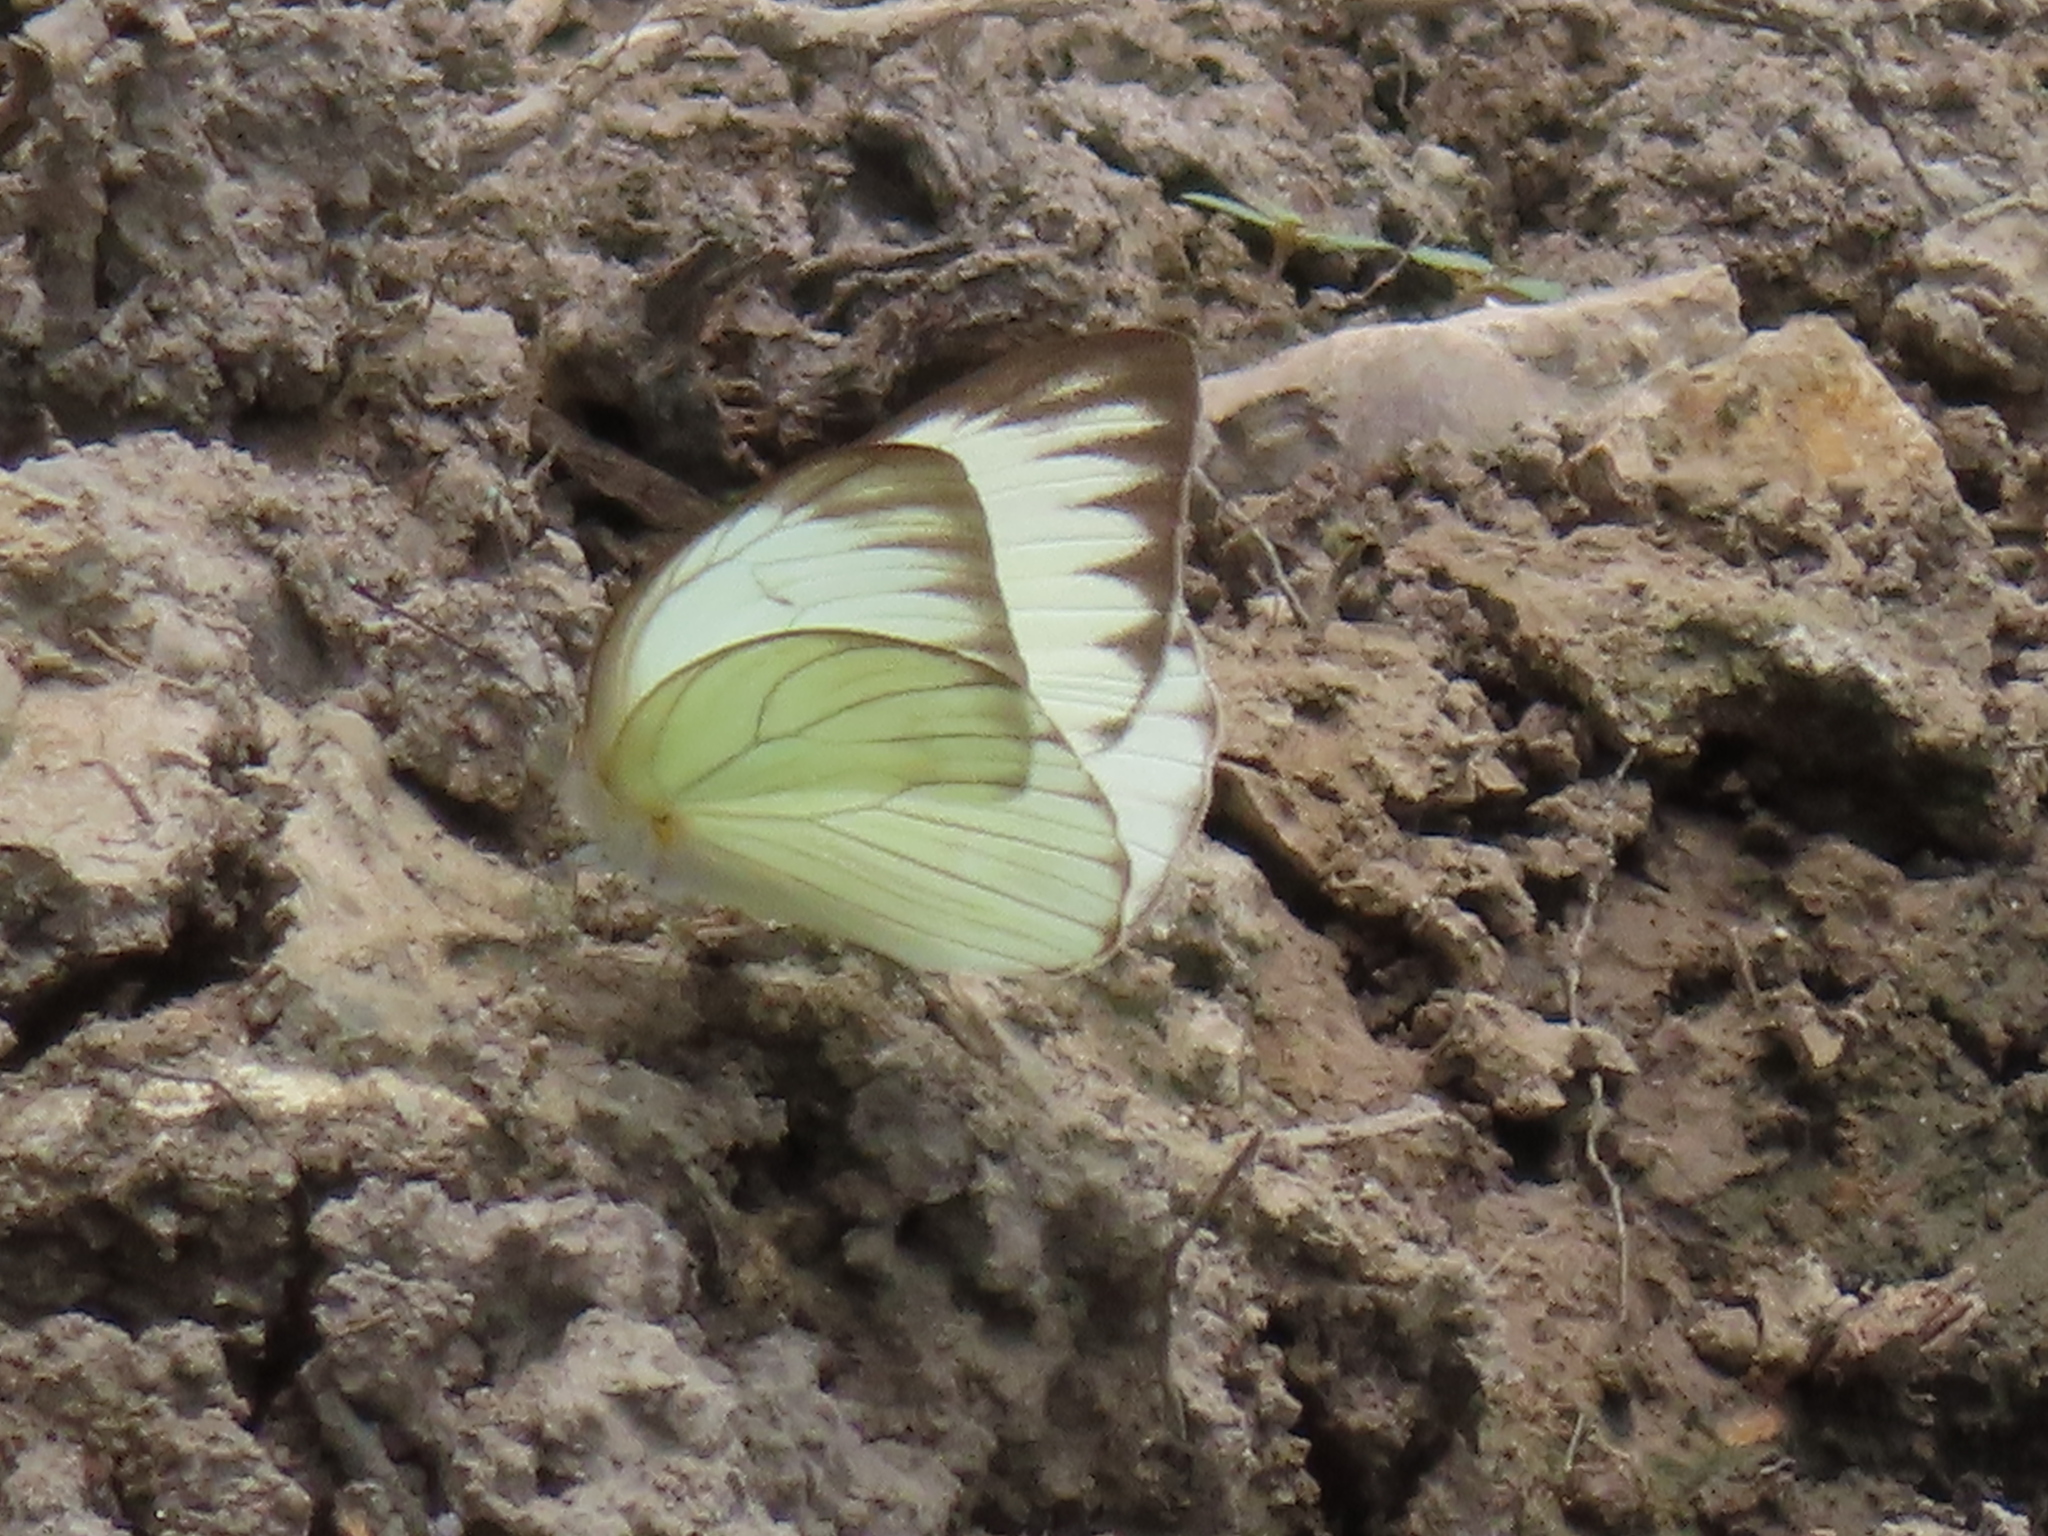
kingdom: Animalia
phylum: Arthropoda
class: Insecta
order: Lepidoptera
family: Pieridae
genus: Ascia
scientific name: Ascia monuste
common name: Great southern white
